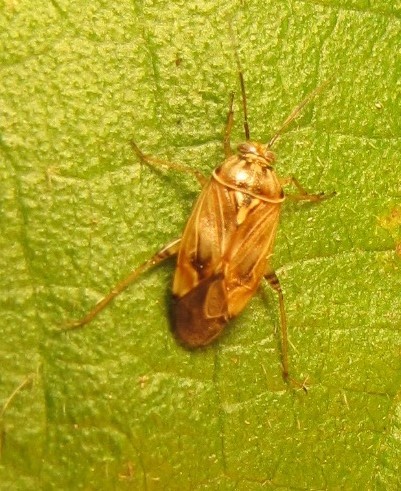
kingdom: Animalia
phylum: Arthropoda
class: Insecta
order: Hemiptera
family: Miridae
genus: Lygus
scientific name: Lygus lineolaris
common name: North american tarnished plant bug
